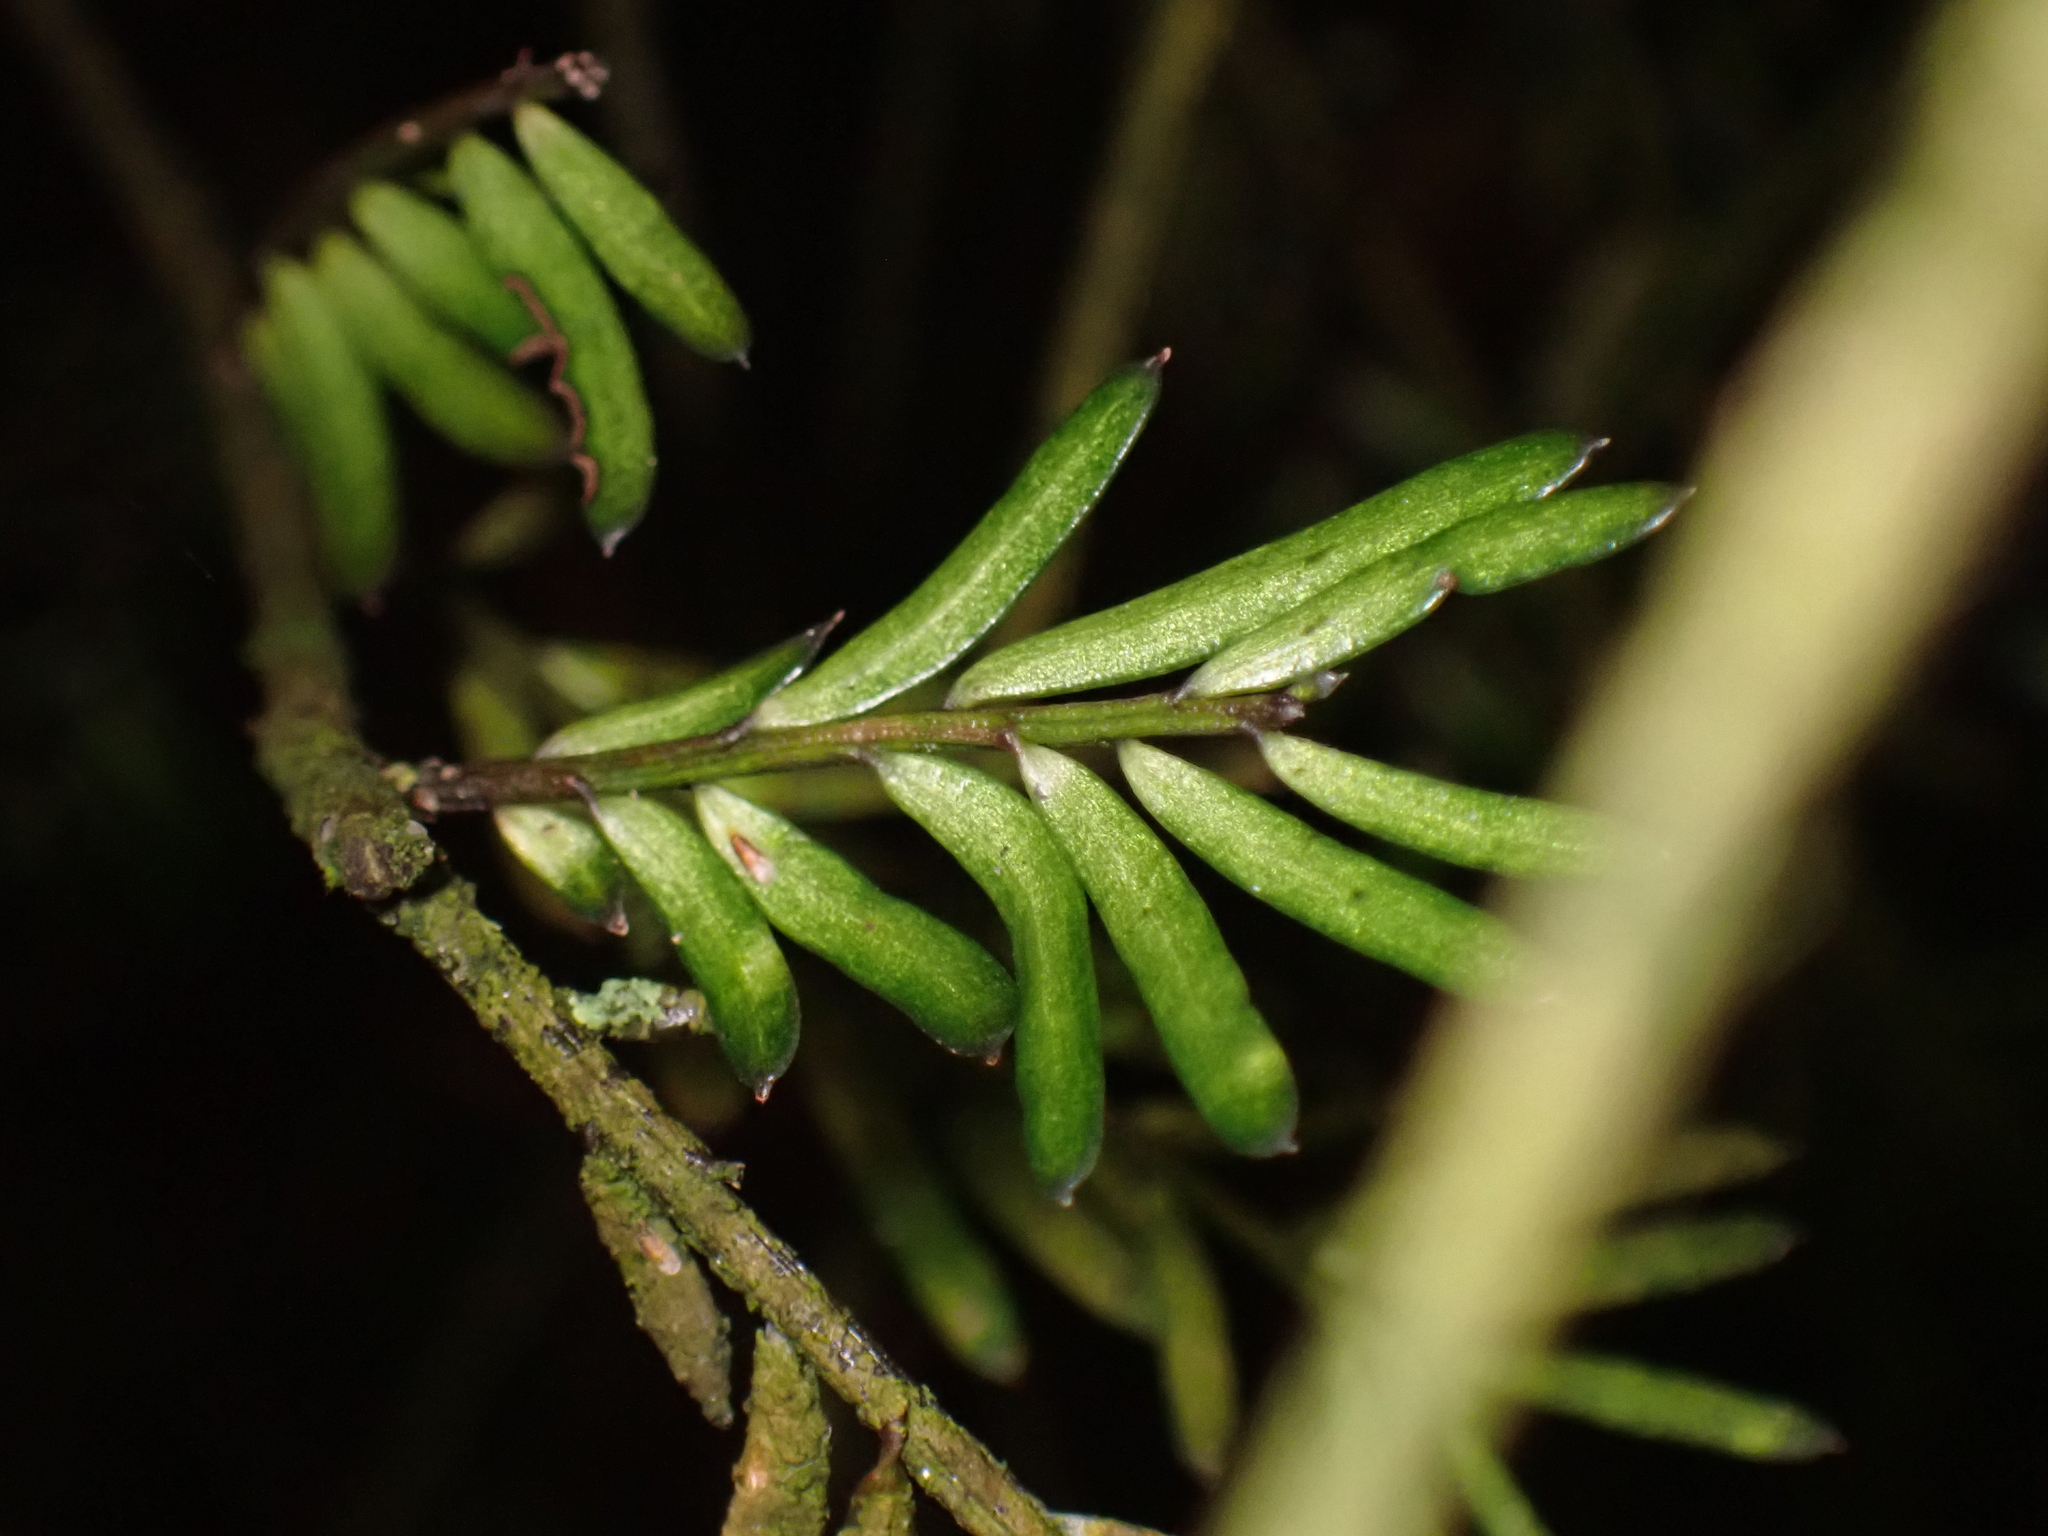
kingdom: Plantae
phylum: Tracheophyta
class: Pinopsida
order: Pinales
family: Podocarpaceae
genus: Prumnopitys
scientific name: Prumnopitys taxifolia
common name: Matai
